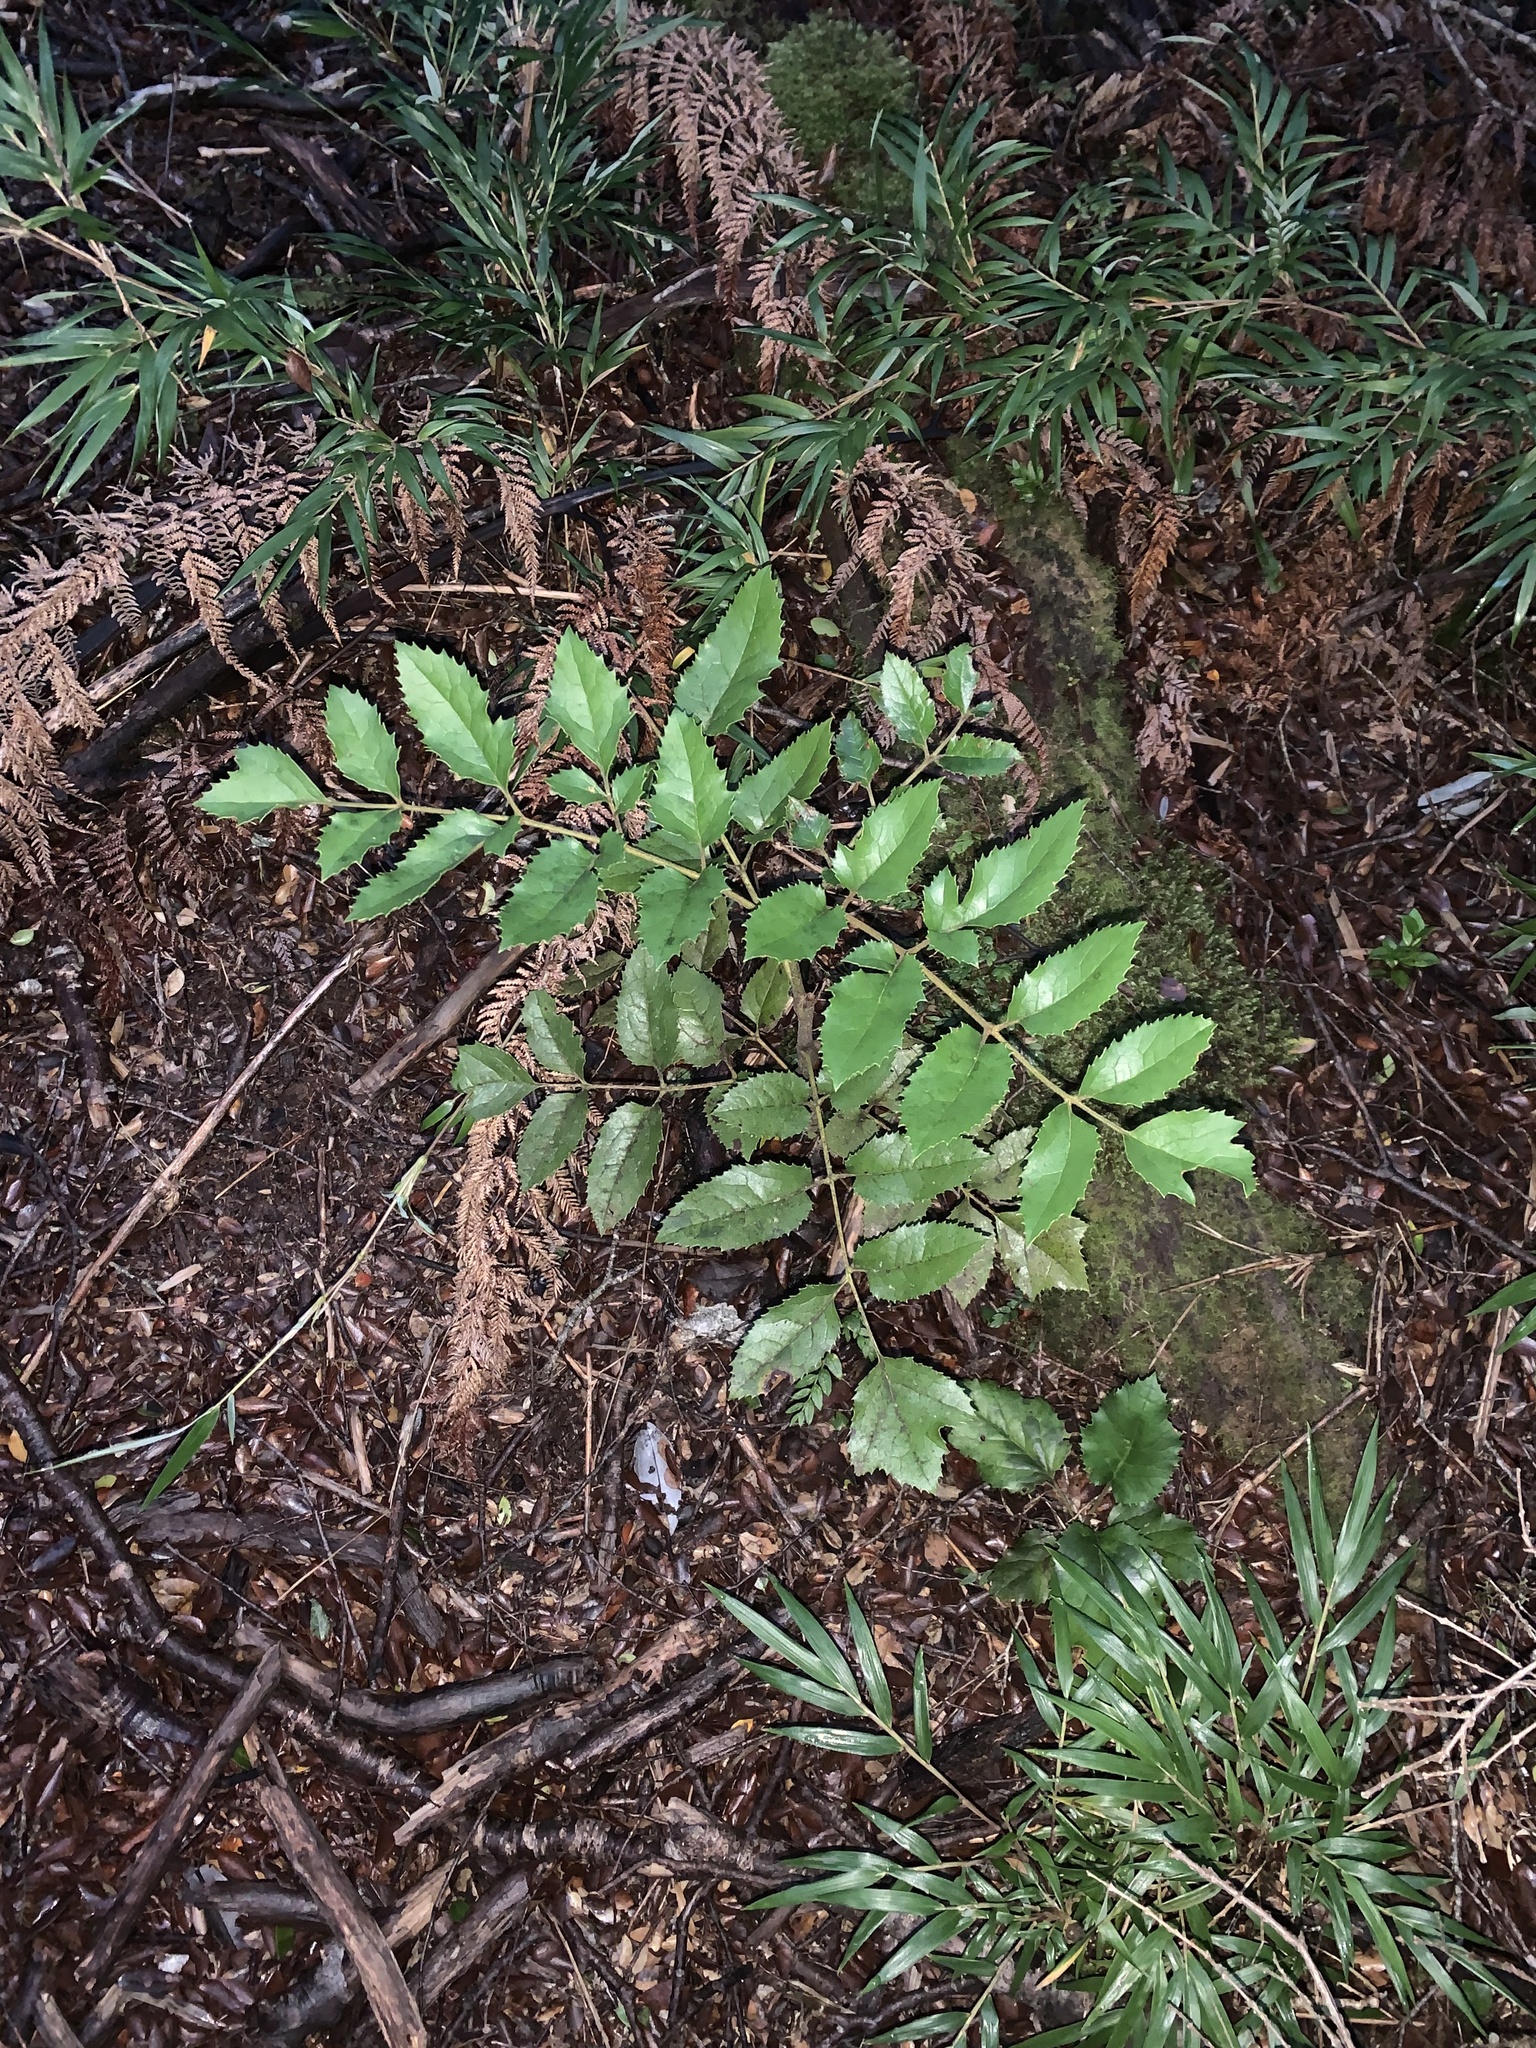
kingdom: Plantae
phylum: Tracheophyta
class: Magnoliopsida
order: Proteales
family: Proteaceae
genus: Gevuina
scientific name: Gevuina avellana
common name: Chilean hazel
